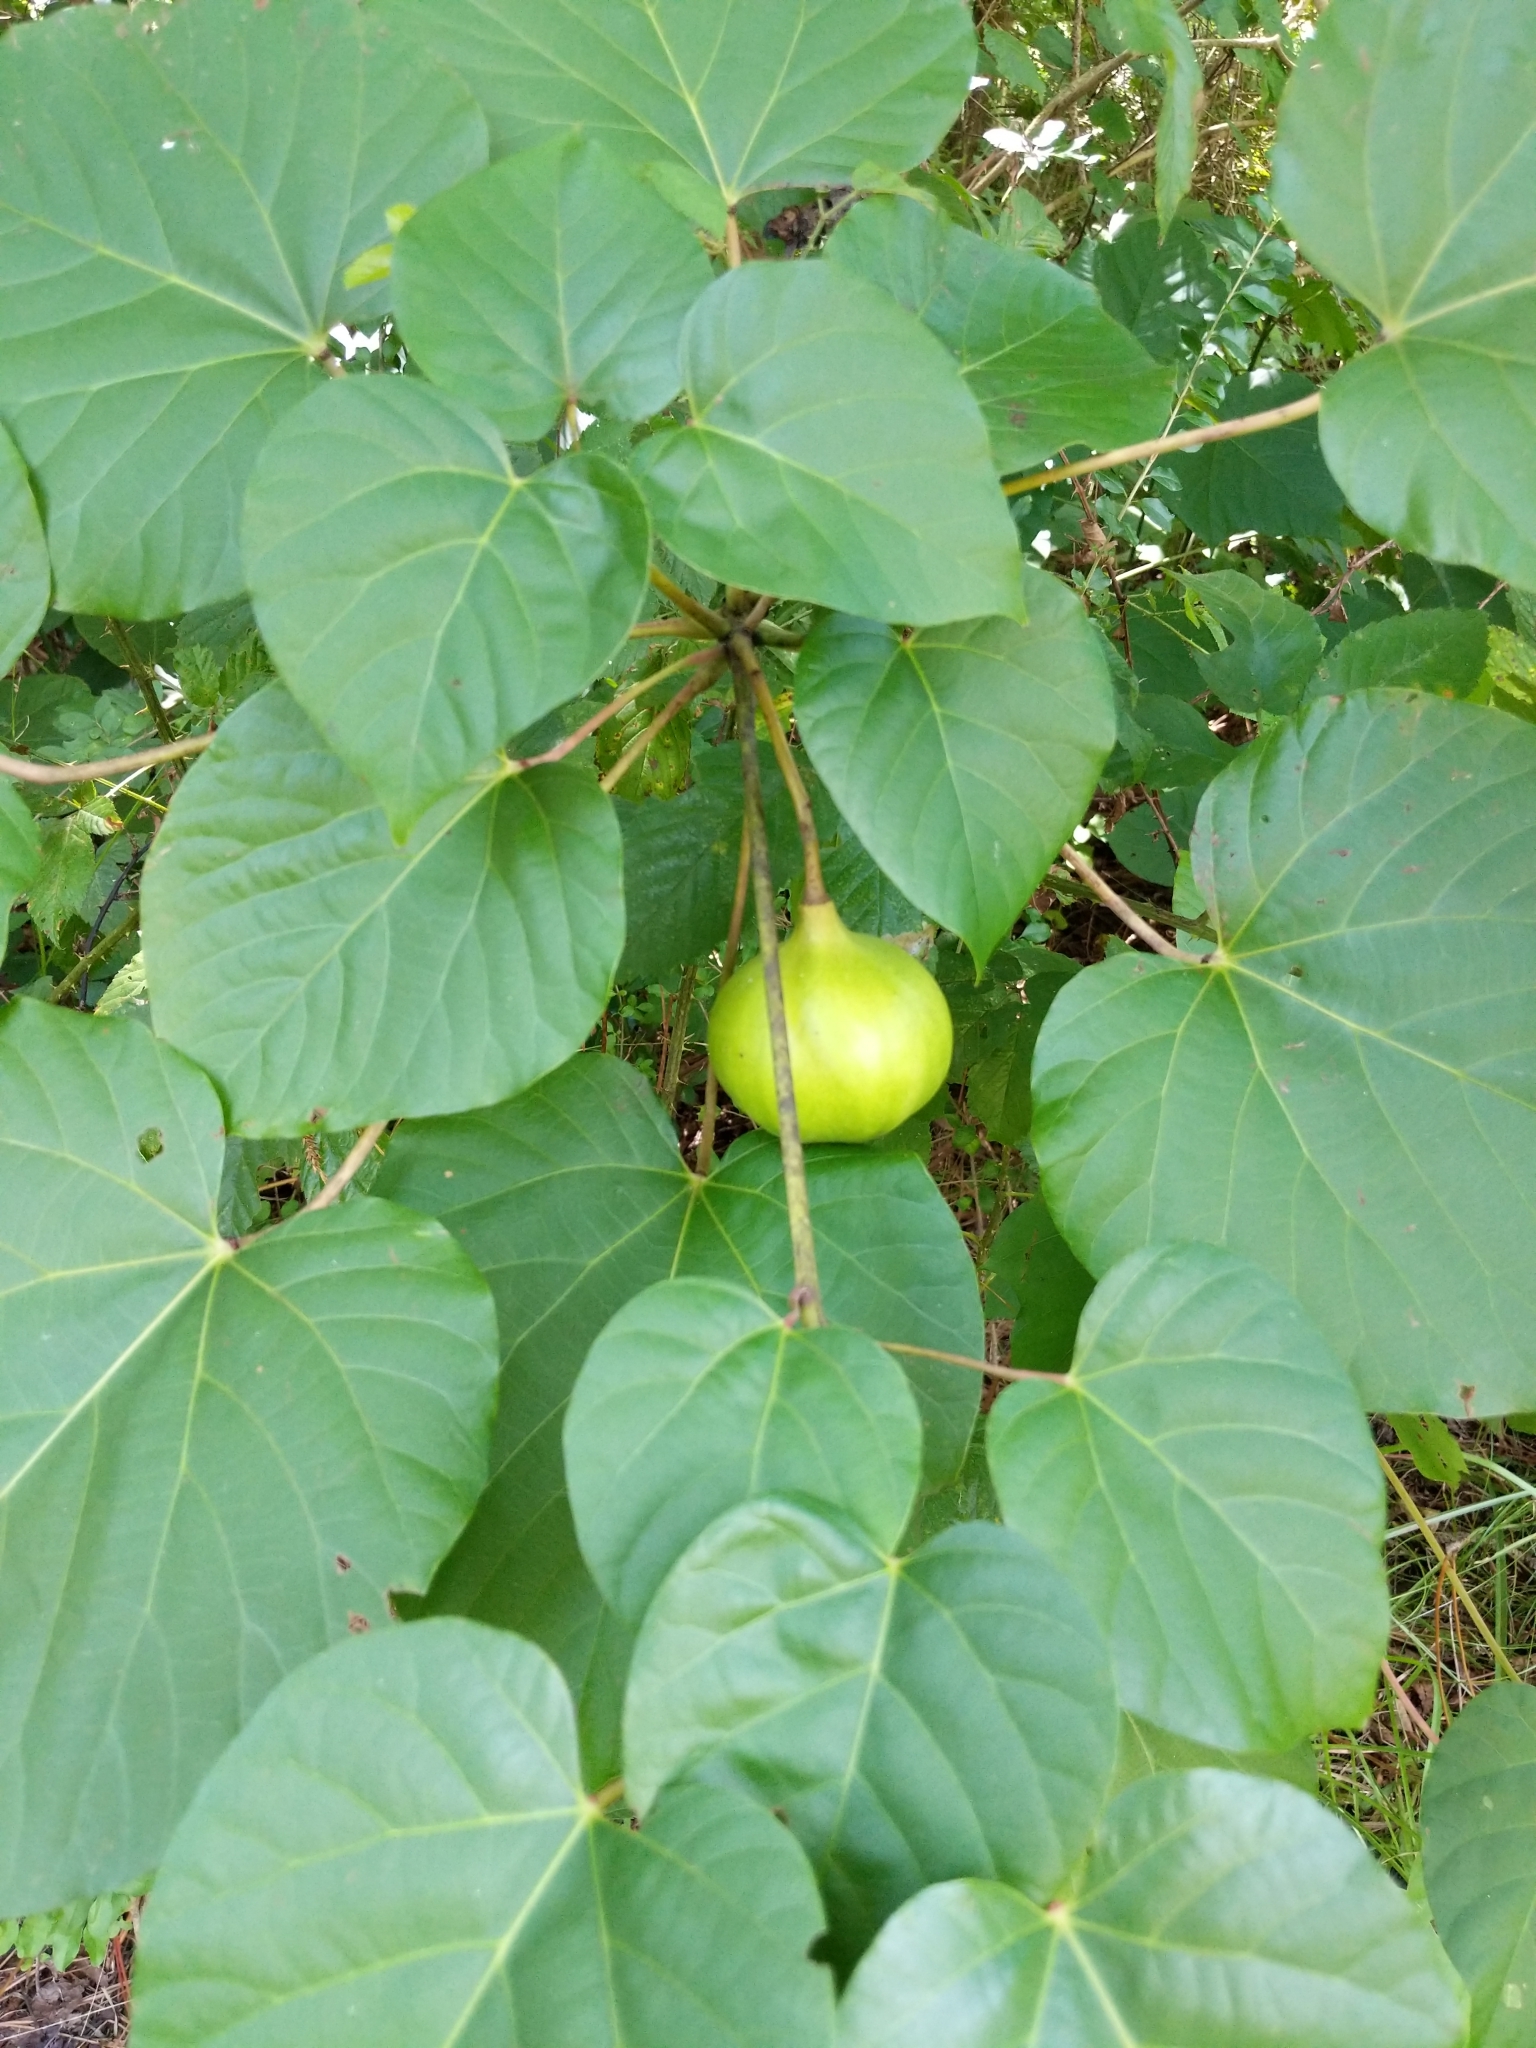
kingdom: Plantae
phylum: Tracheophyta
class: Magnoliopsida
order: Malpighiales
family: Euphorbiaceae
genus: Vernicia
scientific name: Vernicia fordii
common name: Tungoil tree
